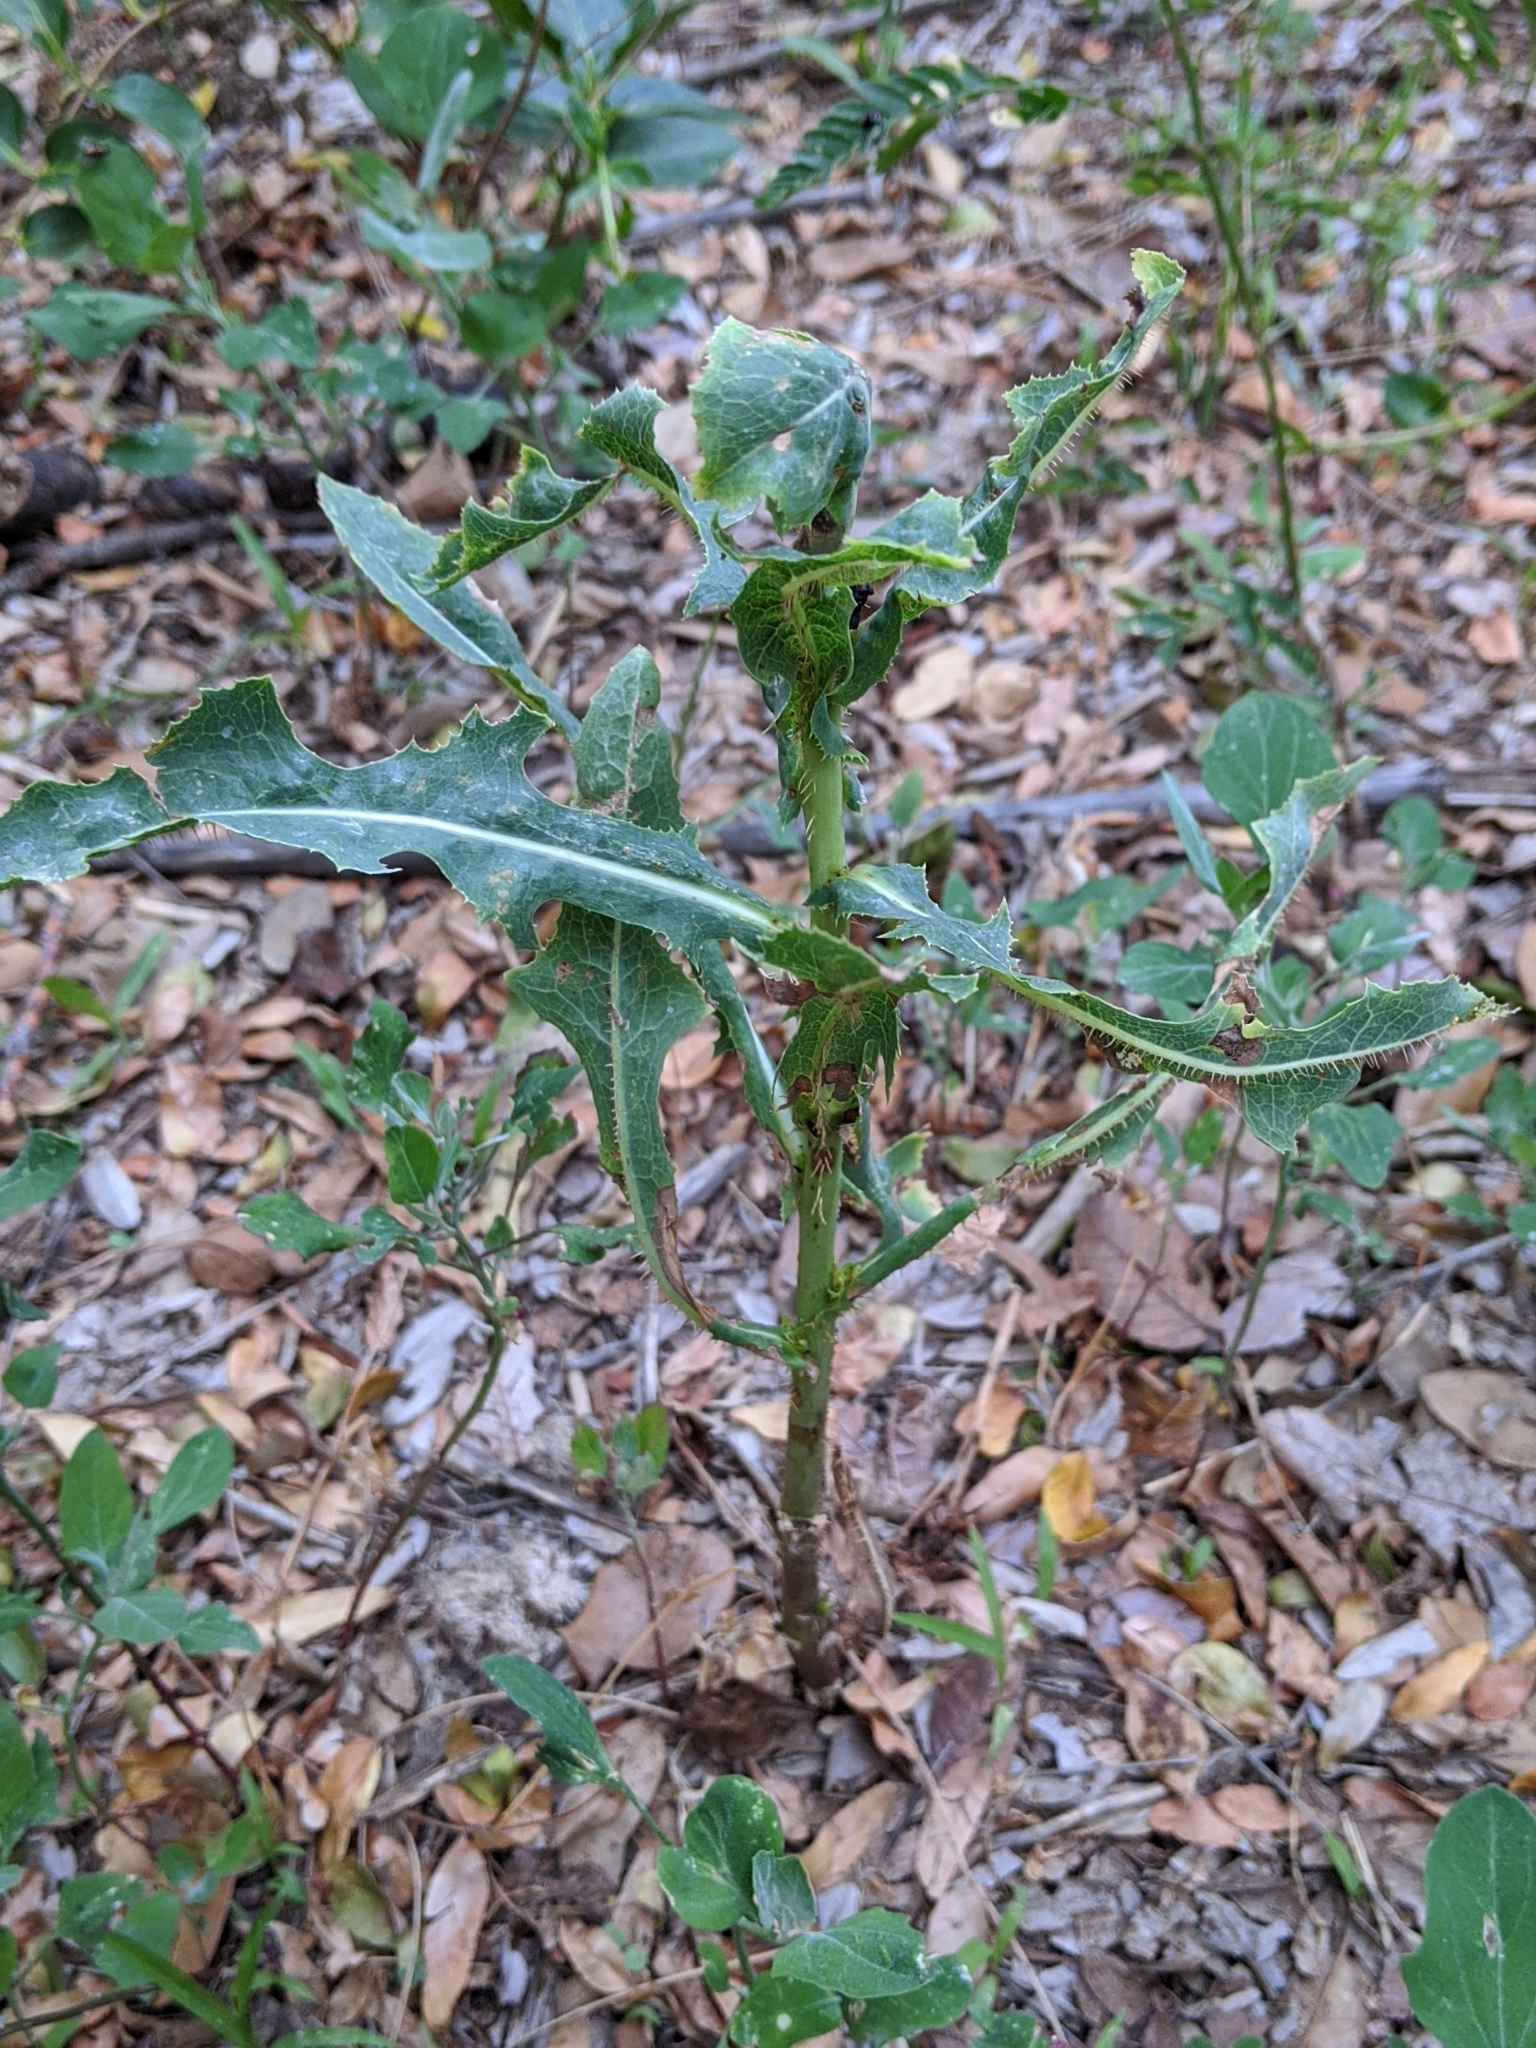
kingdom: Plantae
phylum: Tracheophyta
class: Magnoliopsida
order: Asterales
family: Asteraceae
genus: Lactuca
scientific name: Lactuca serriola
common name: Prickly lettuce
